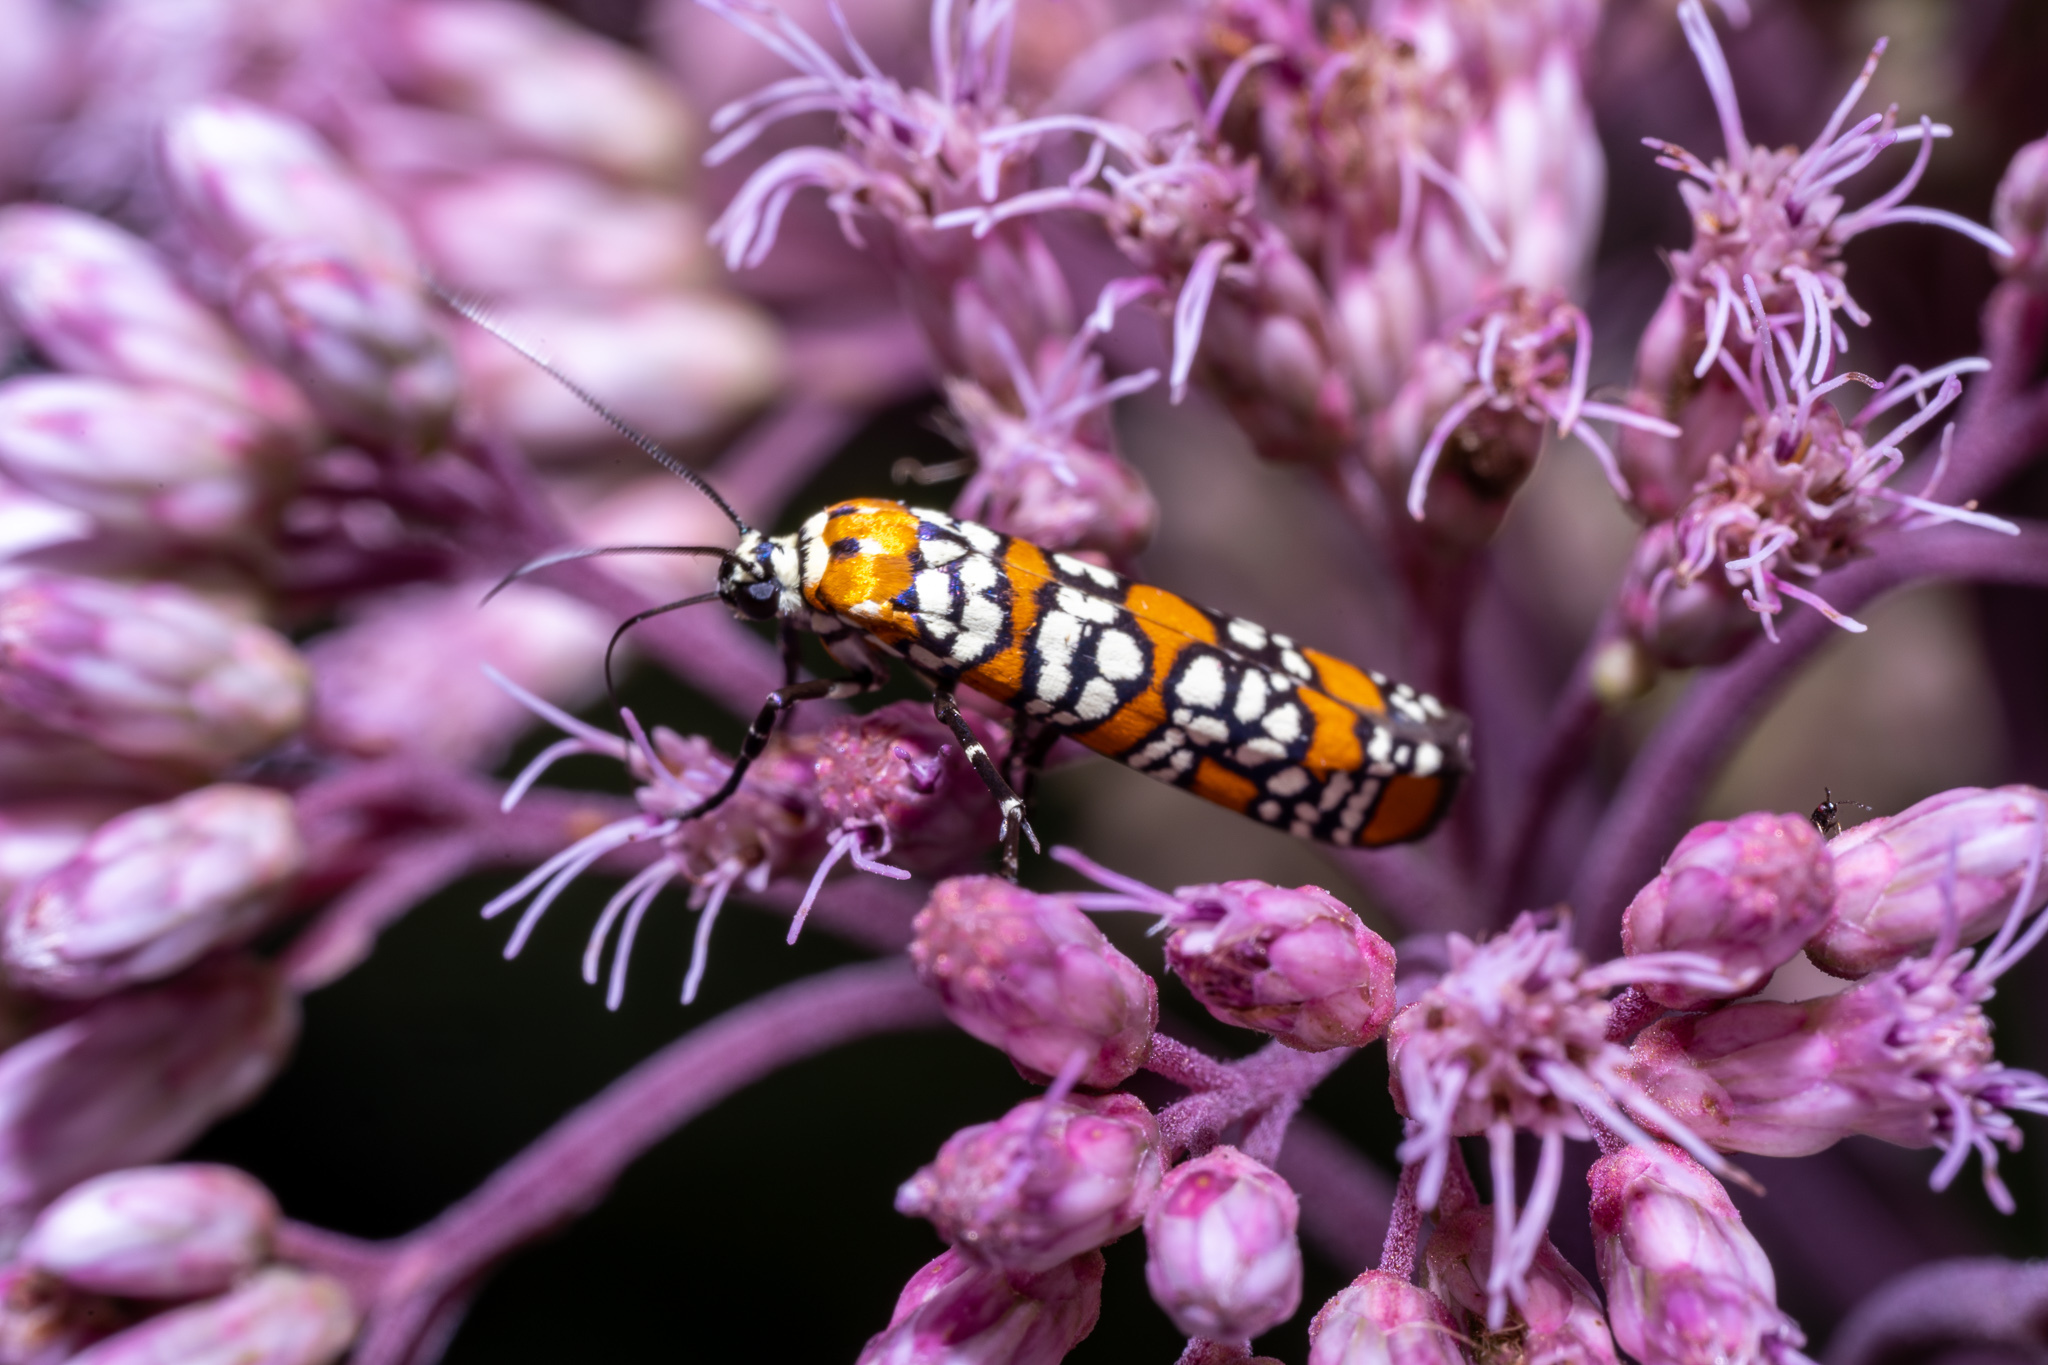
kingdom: Animalia
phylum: Arthropoda
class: Insecta
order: Lepidoptera
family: Attevidae
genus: Atteva
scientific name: Atteva punctella
